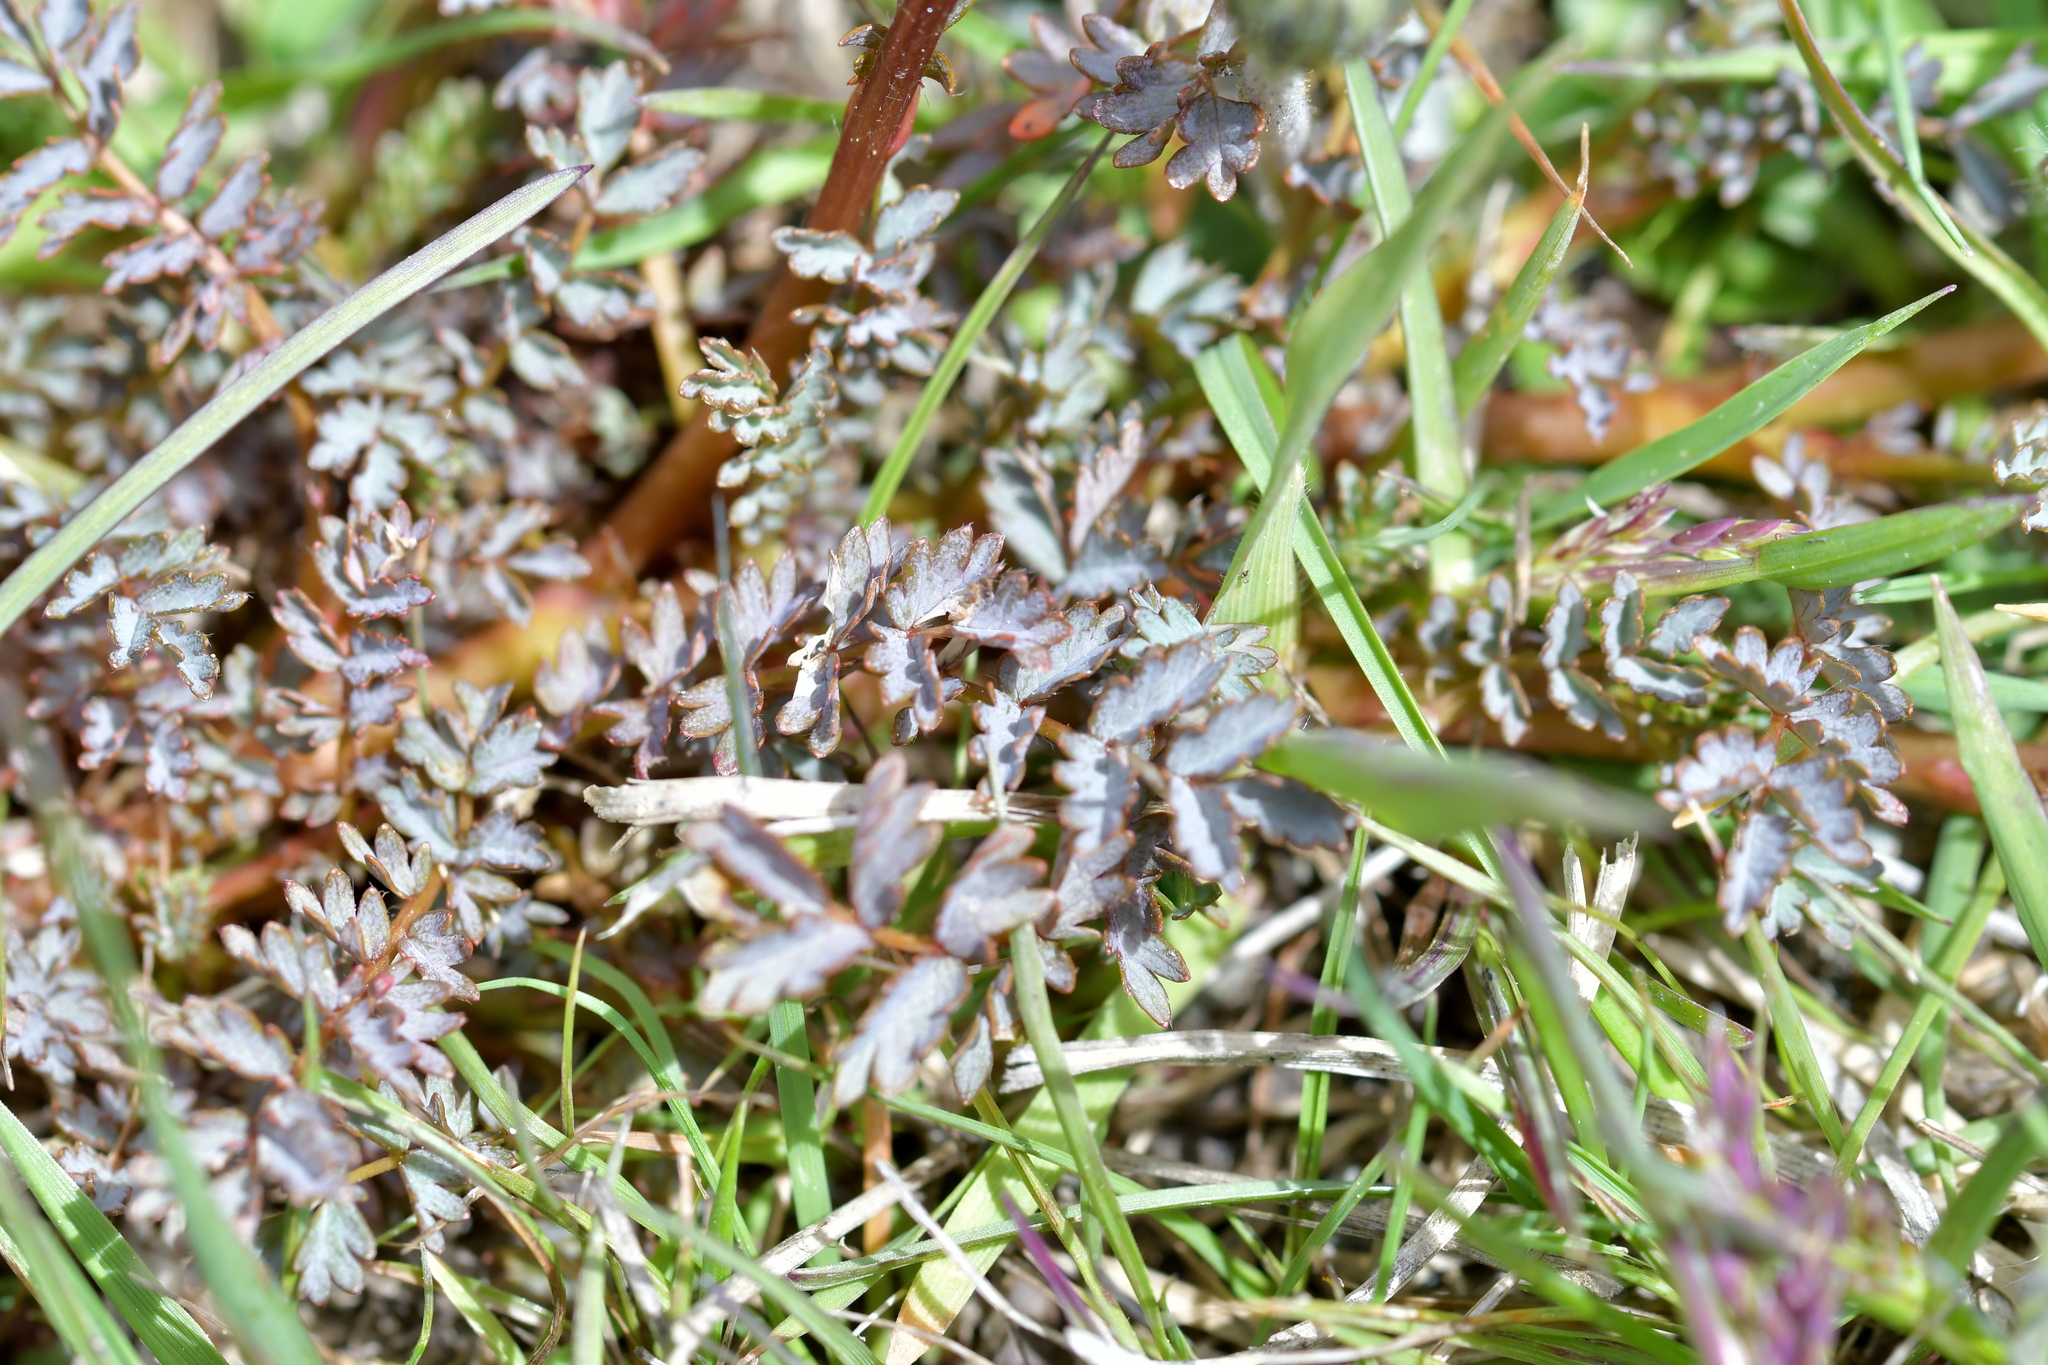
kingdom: Plantae
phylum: Tracheophyta
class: Magnoliopsida
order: Rosales
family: Rosaceae
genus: Acaena
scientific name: Acaena saccaticupula
